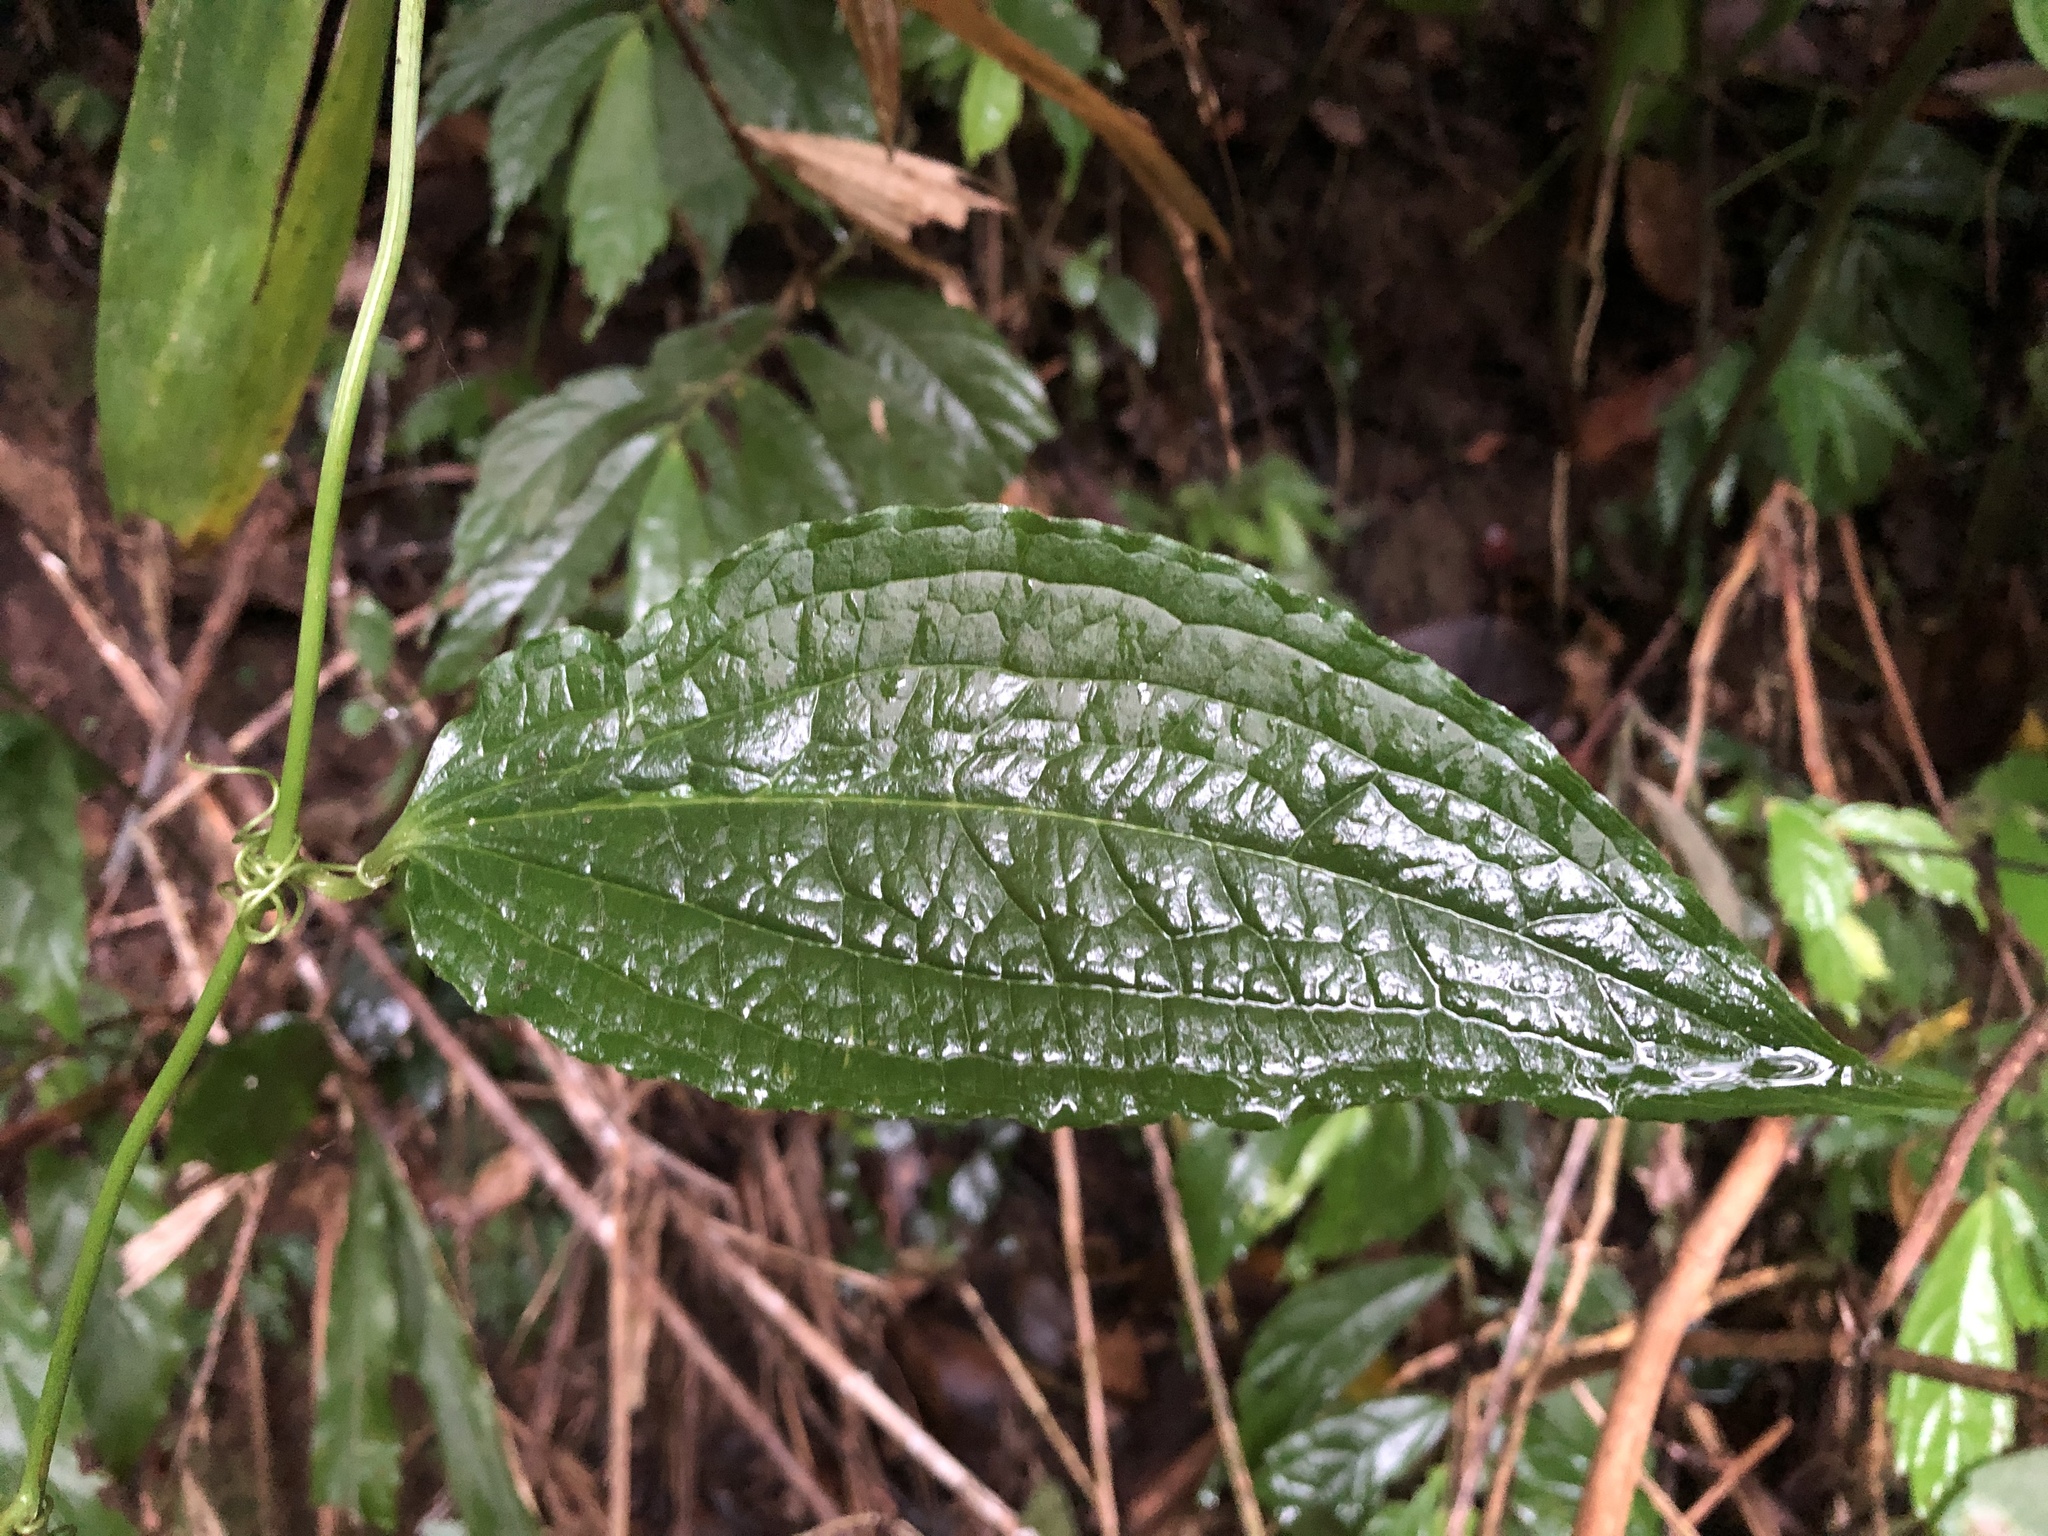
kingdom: Plantae
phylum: Tracheophyta
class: Liliopsida
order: Liliales
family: Smilacaceae
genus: Smilax
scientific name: Smilax riparia
